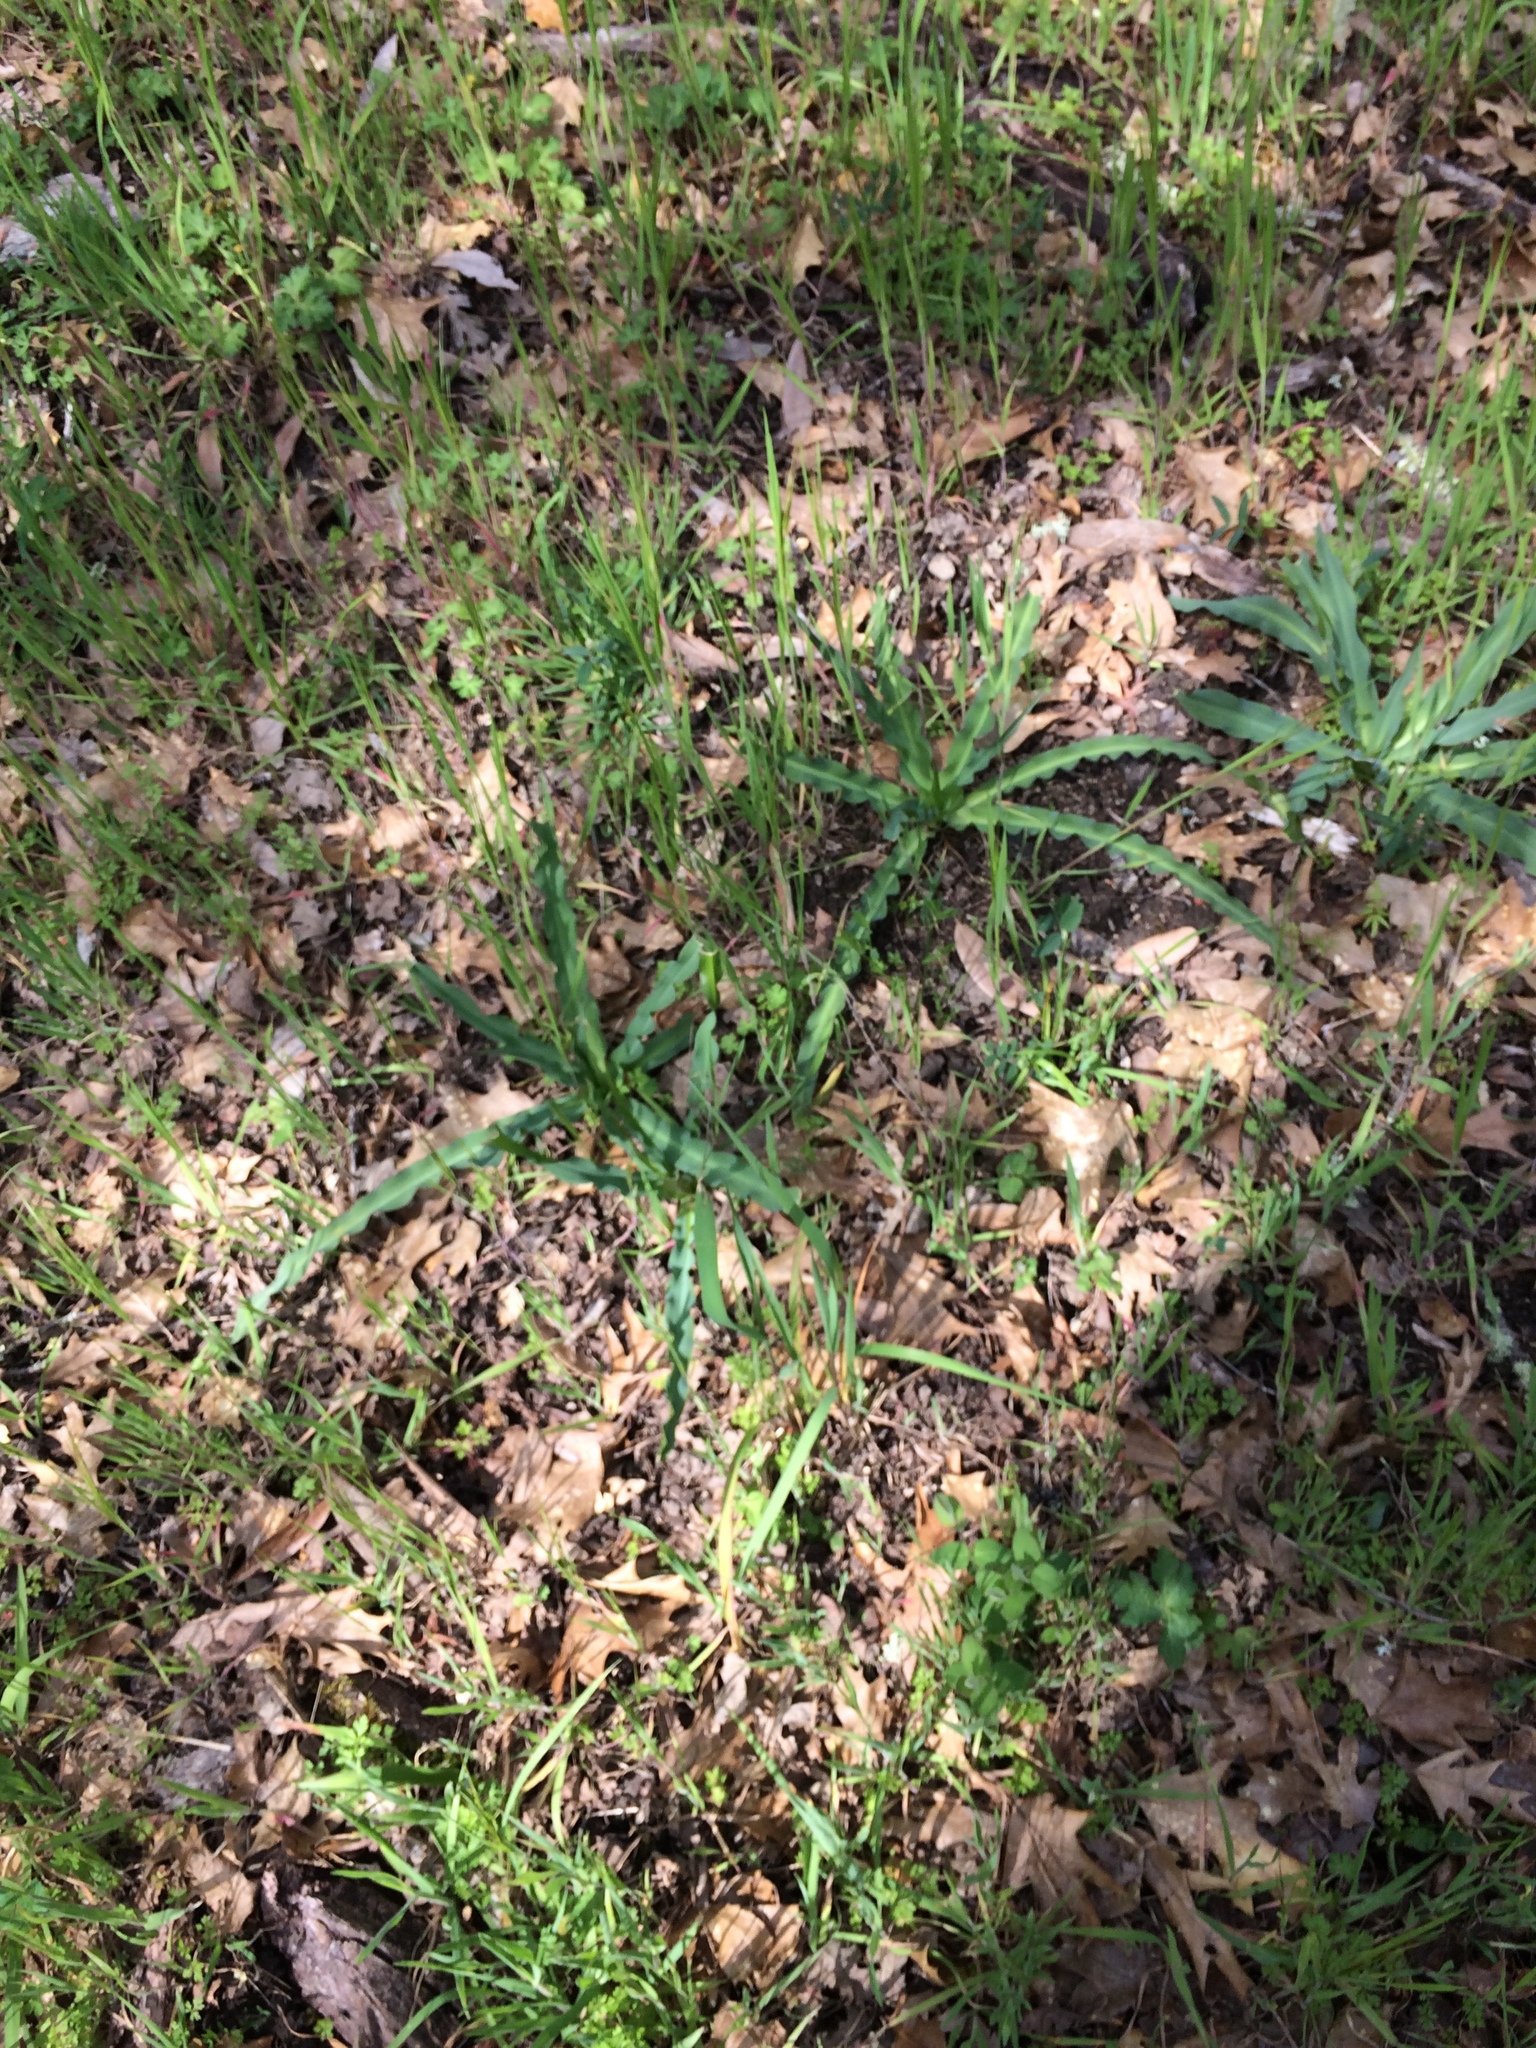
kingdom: Plantae
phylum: Tracheophyta
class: Liliopsida
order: Asparagales
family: Asparagaceae
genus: Chlorogalum
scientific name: Chlorogalum pomeridianum
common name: Amole
